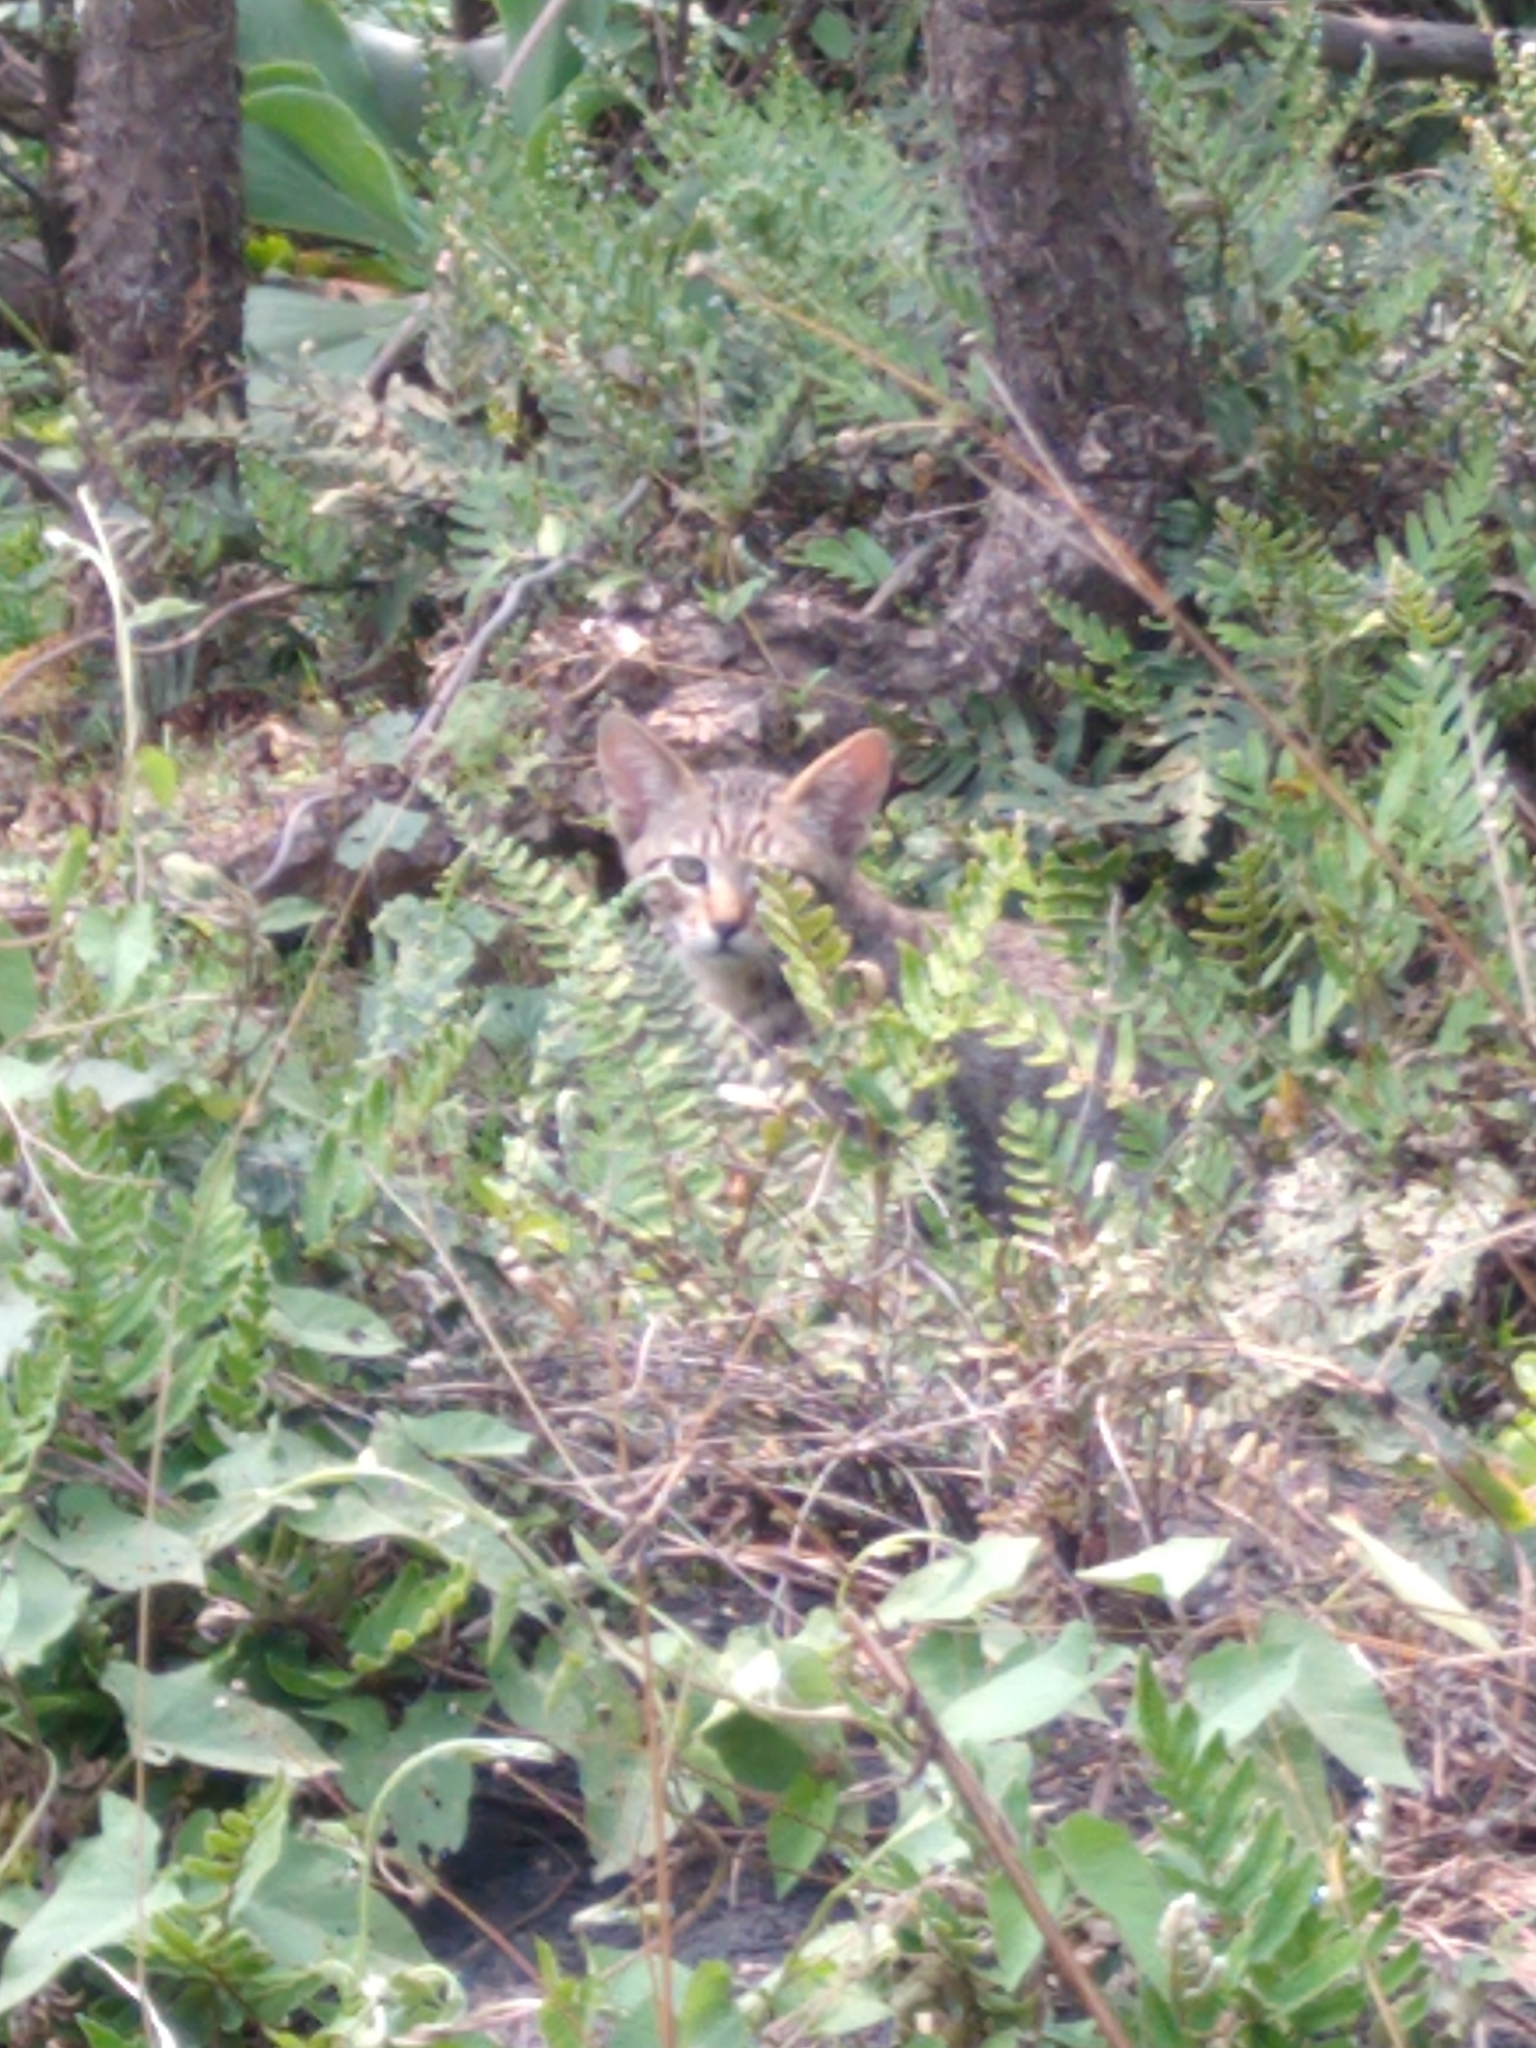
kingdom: Animalia
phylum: Chordata
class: Mammalia
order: Carnivora
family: Felidae
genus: Felis
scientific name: Felis catus
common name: Domestic cat
